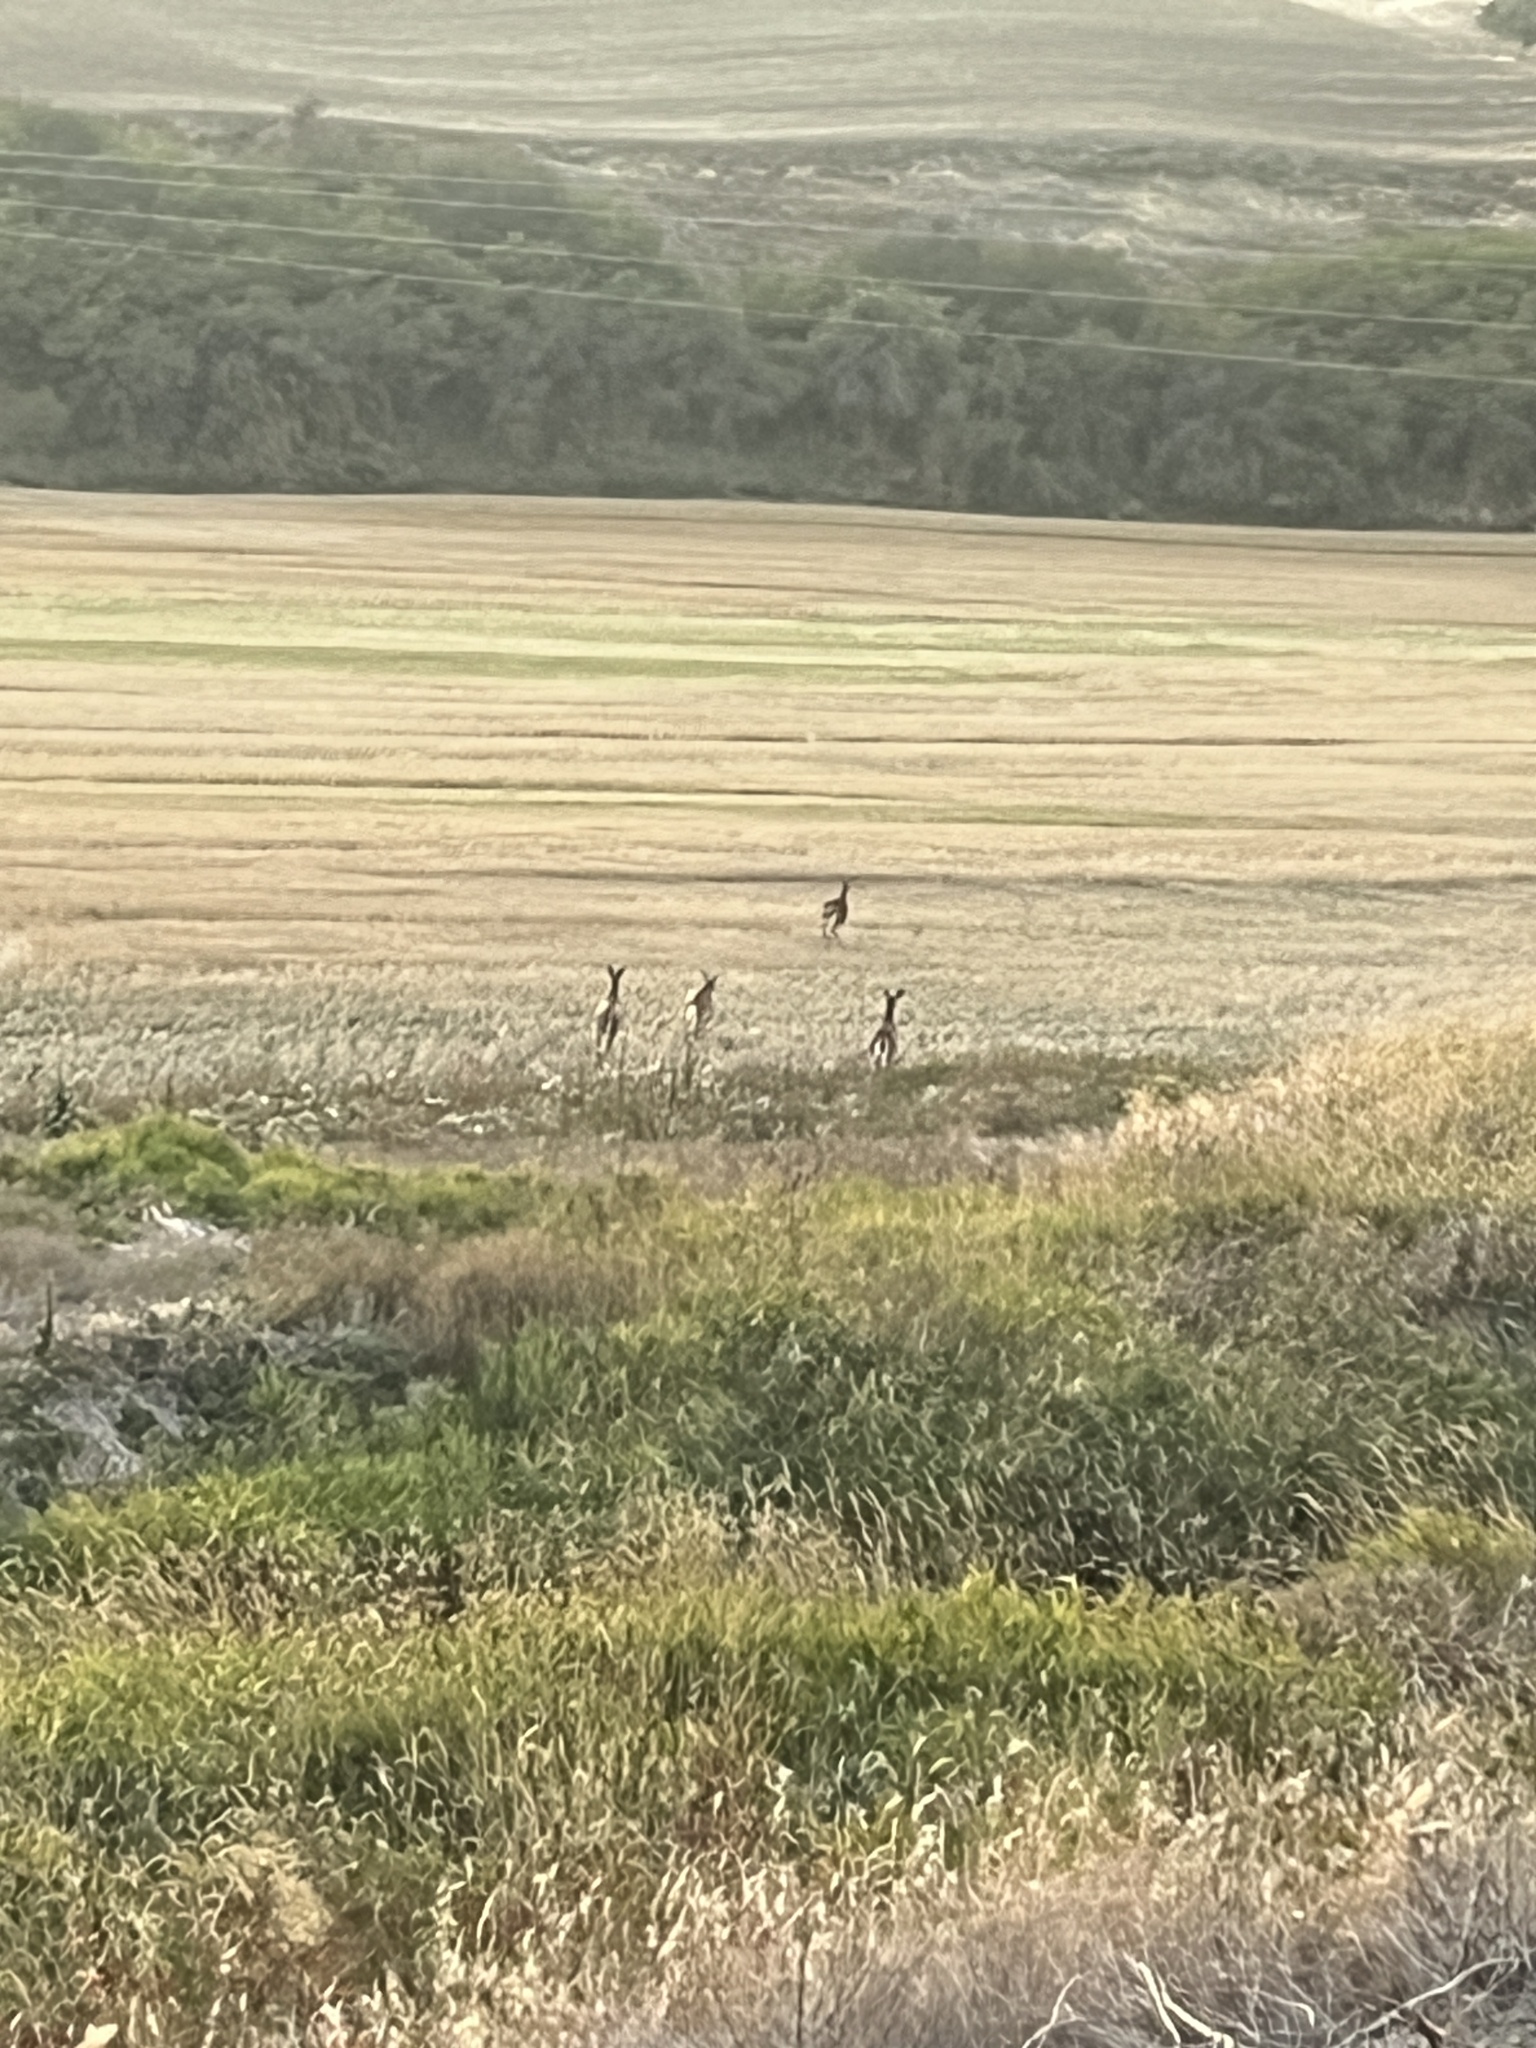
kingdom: Animalia
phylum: Chordata
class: Mammalia
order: Artiodactyla
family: Cervidae
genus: Odocoileus
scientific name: Odocoileus virginianus
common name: White-tailed deer
